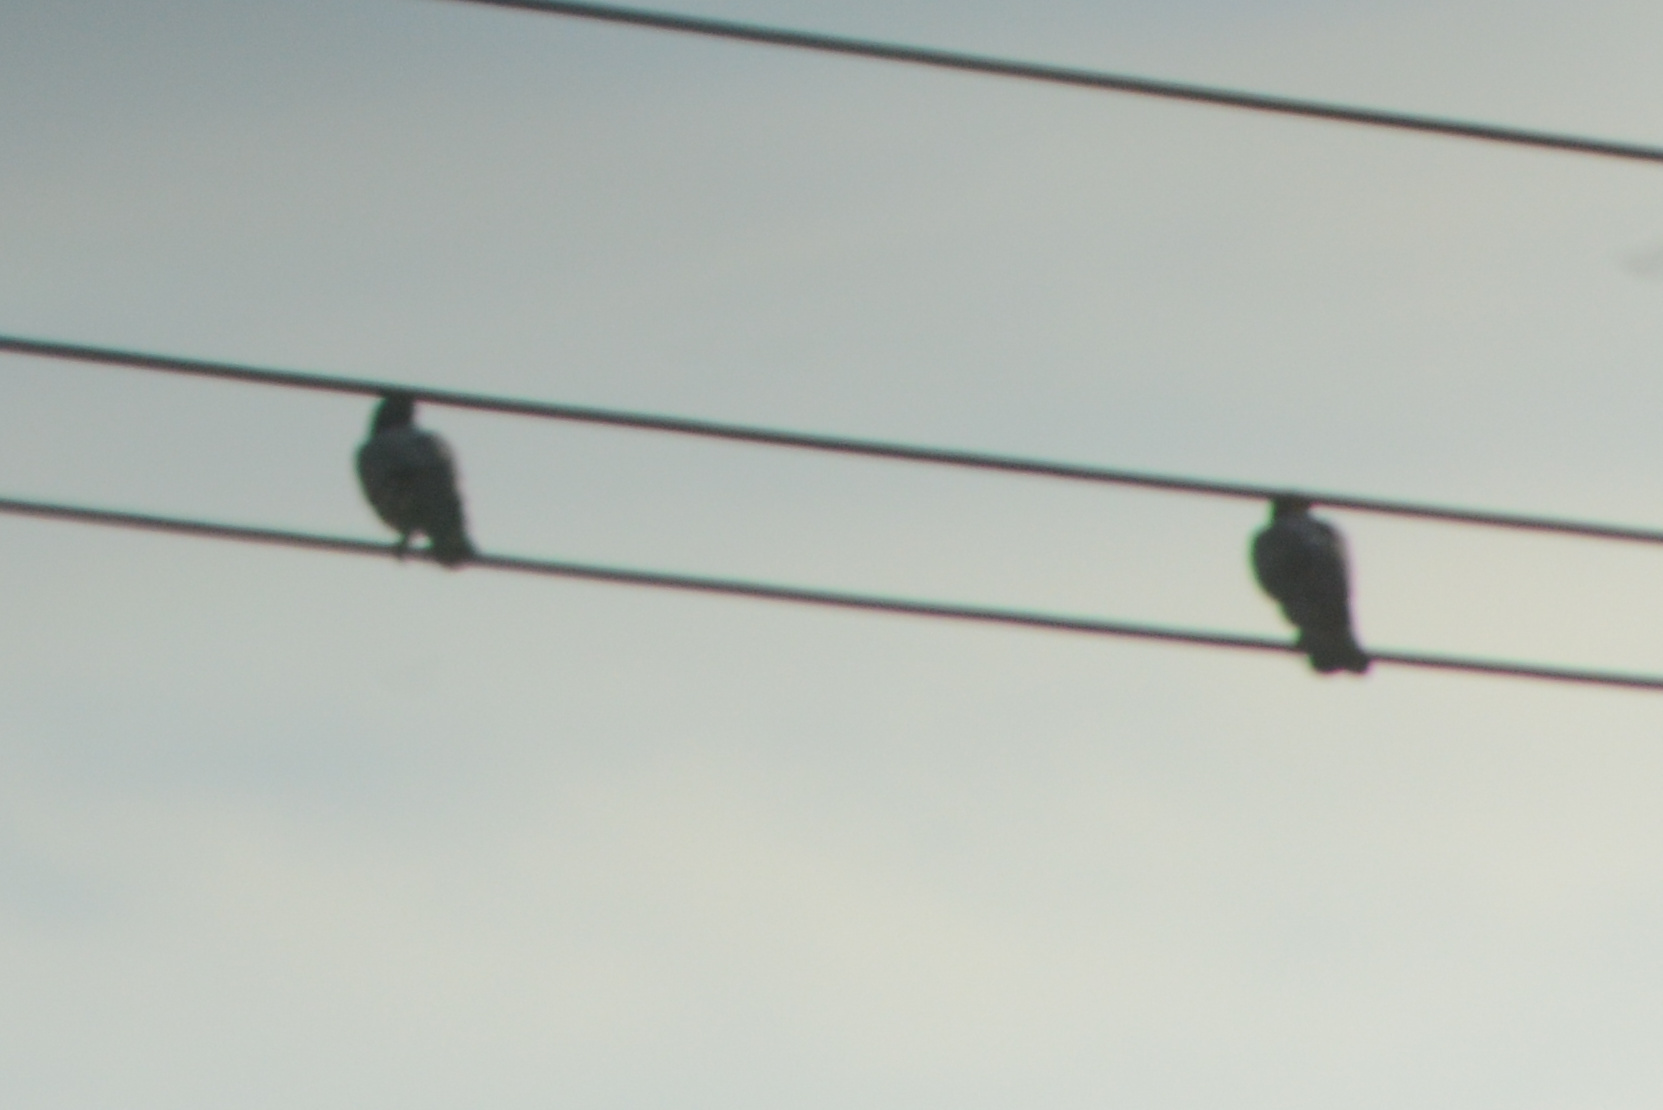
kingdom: Animalia
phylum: Chordata
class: Aves
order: Columbiformes
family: Columbidae
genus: Columba
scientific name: Columba livia
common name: Rock pigeon
